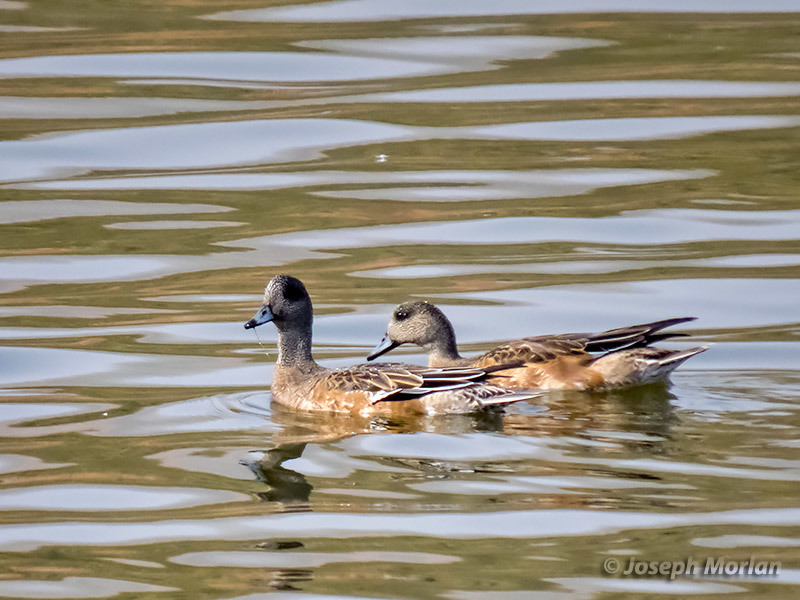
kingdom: Animalia
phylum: Chordata
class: Aves
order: Anseriformes
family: Anatidae
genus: Mareca
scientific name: Mareca americana
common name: American wigeon
